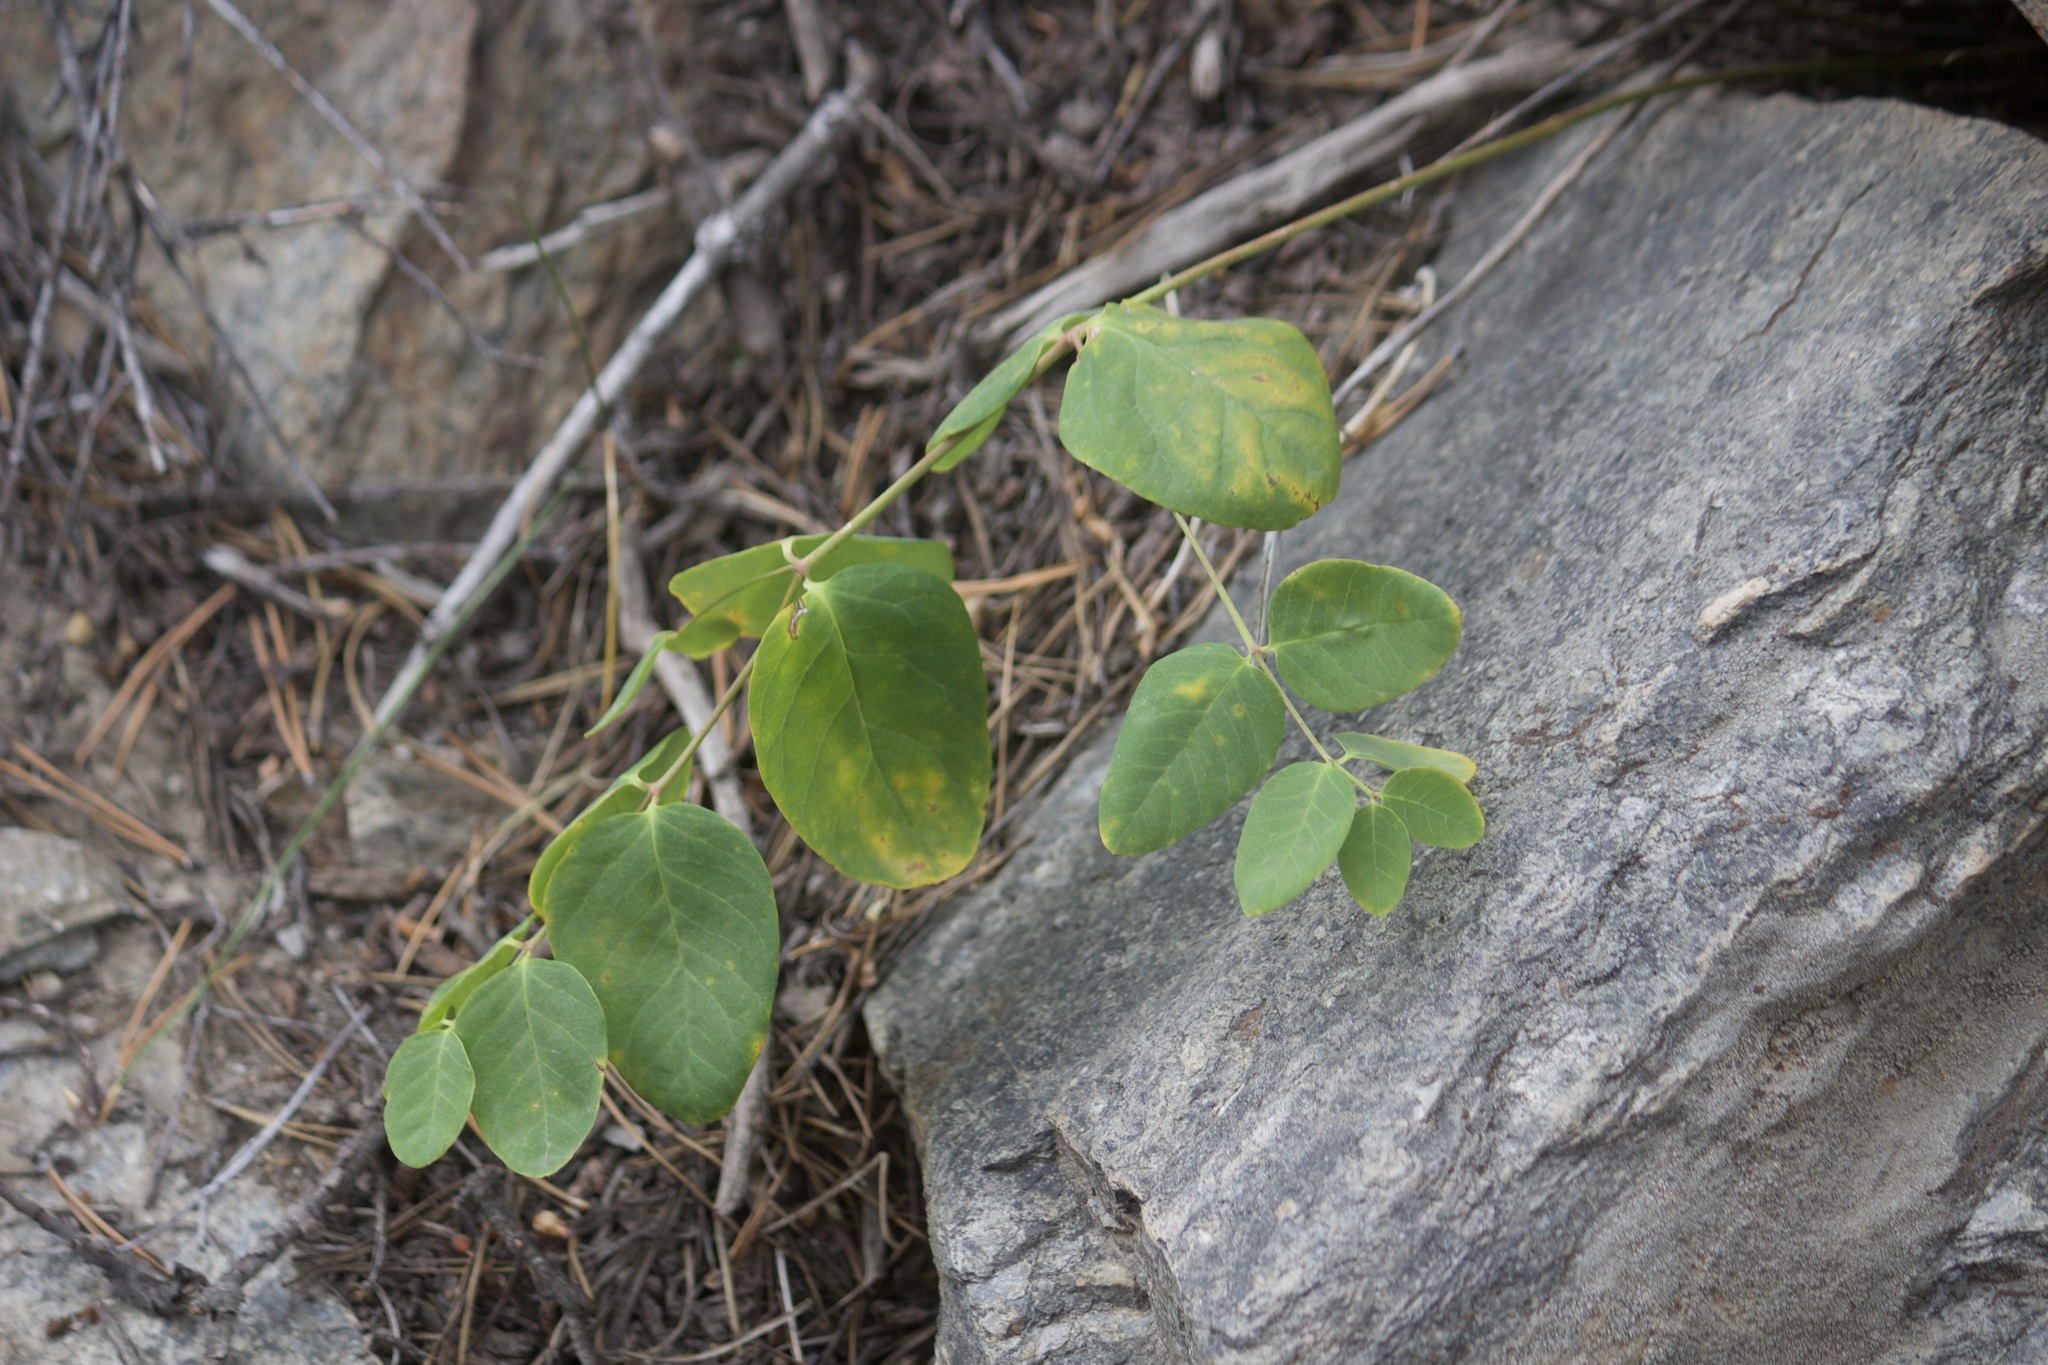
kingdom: Plantae
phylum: Tracheophyta
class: Magnoliopsida
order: Gentianales
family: Apocynaceae
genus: Apocynum
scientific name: Apocynum androsaemifolium
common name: Spreading dogbane
